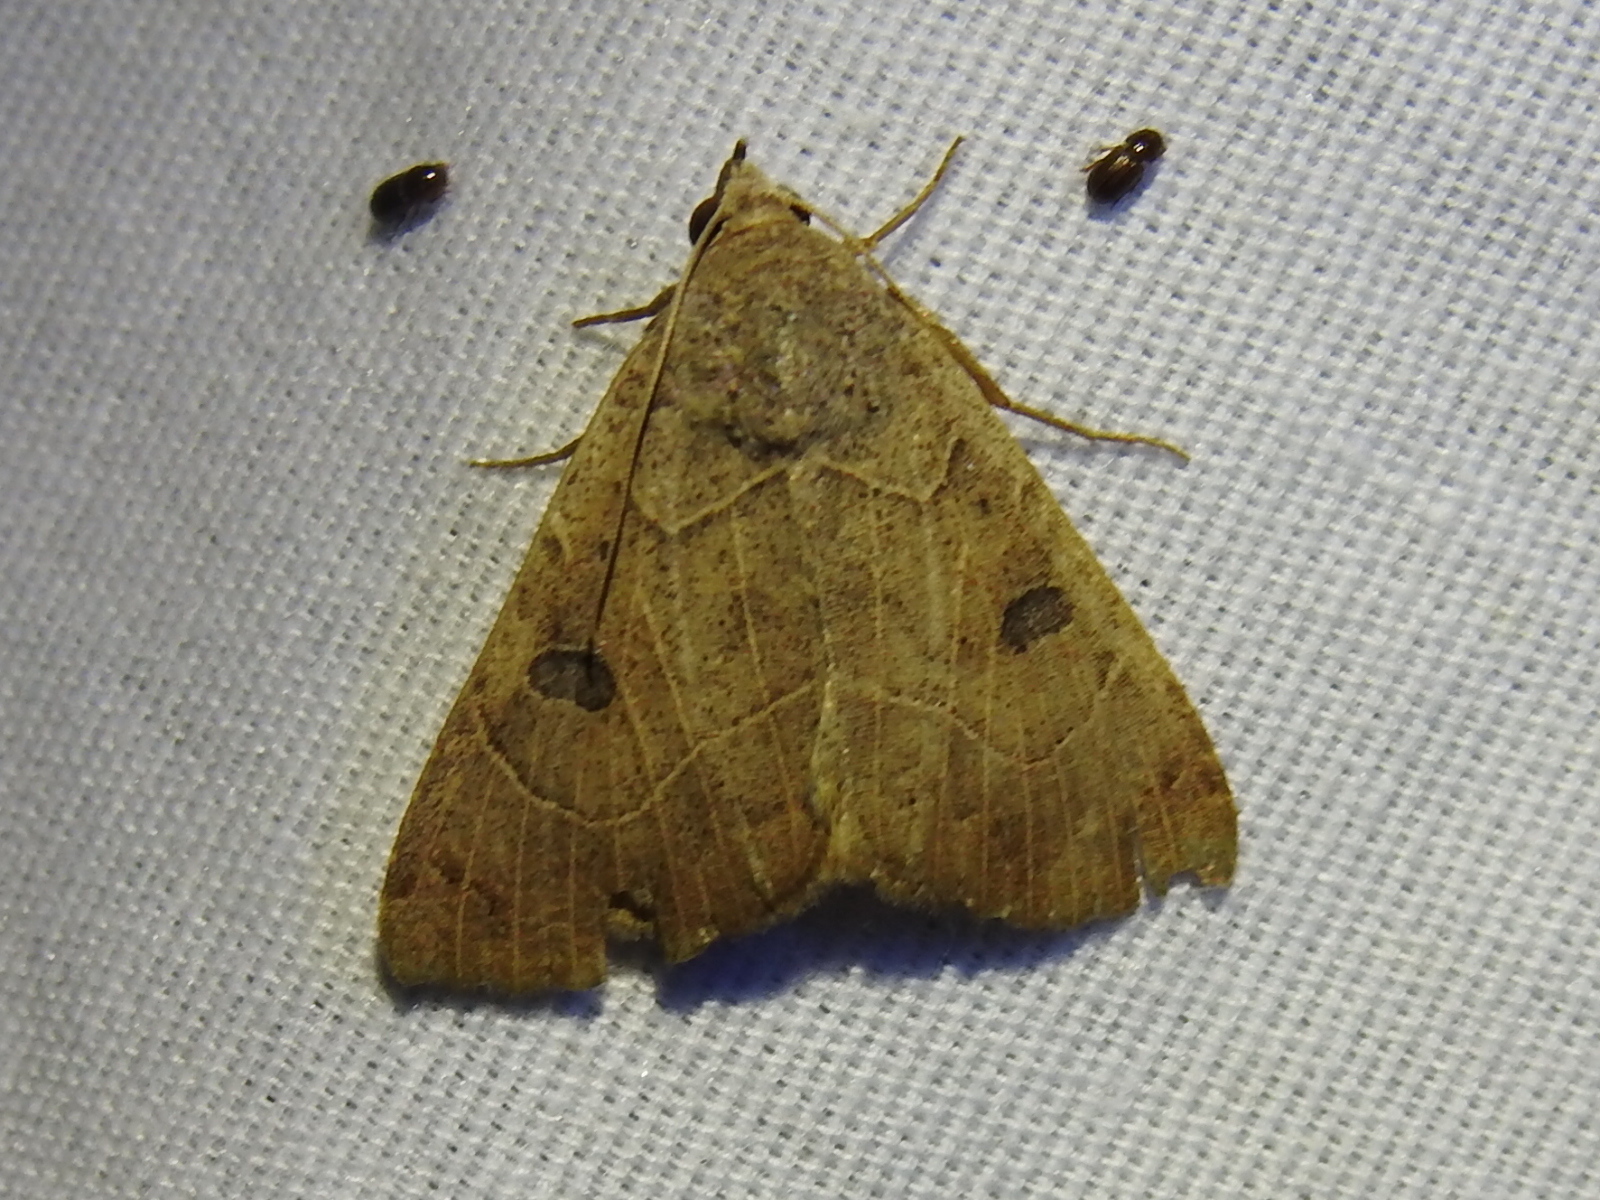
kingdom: Animalia
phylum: Arthropoda
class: Insecta
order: Lepidoptera
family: Erebidae
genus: Isogona
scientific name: Isogona scindens
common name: Owlet moth
